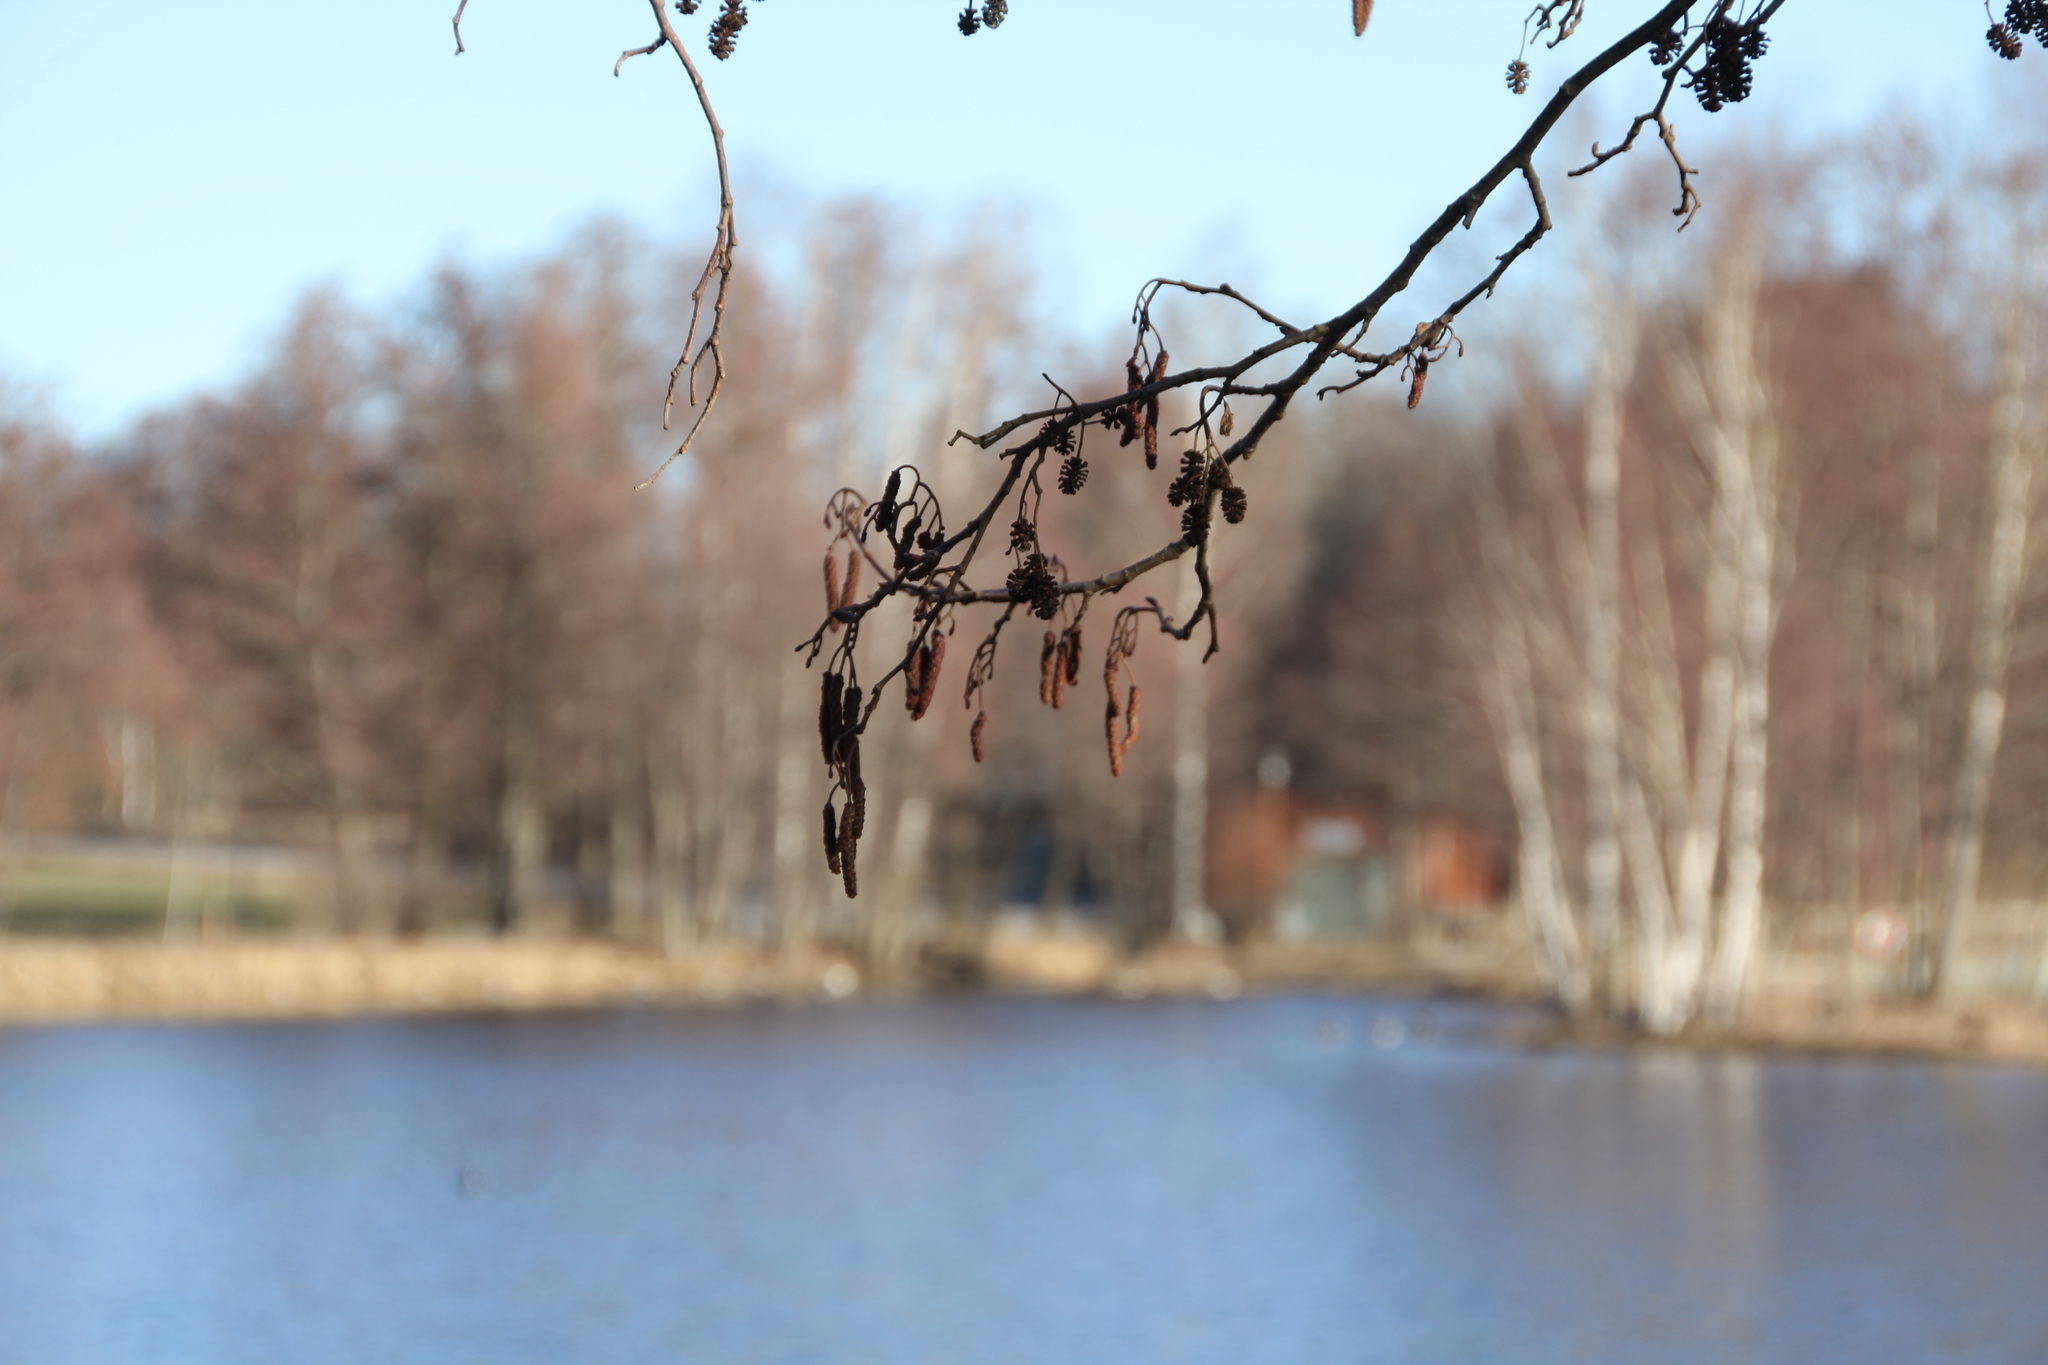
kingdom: Plantae
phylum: Tracheophyta
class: Magnoliopsida
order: Fagales
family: Betulaceae
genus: Alnus
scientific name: Alnus glutinosa
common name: Black alder
